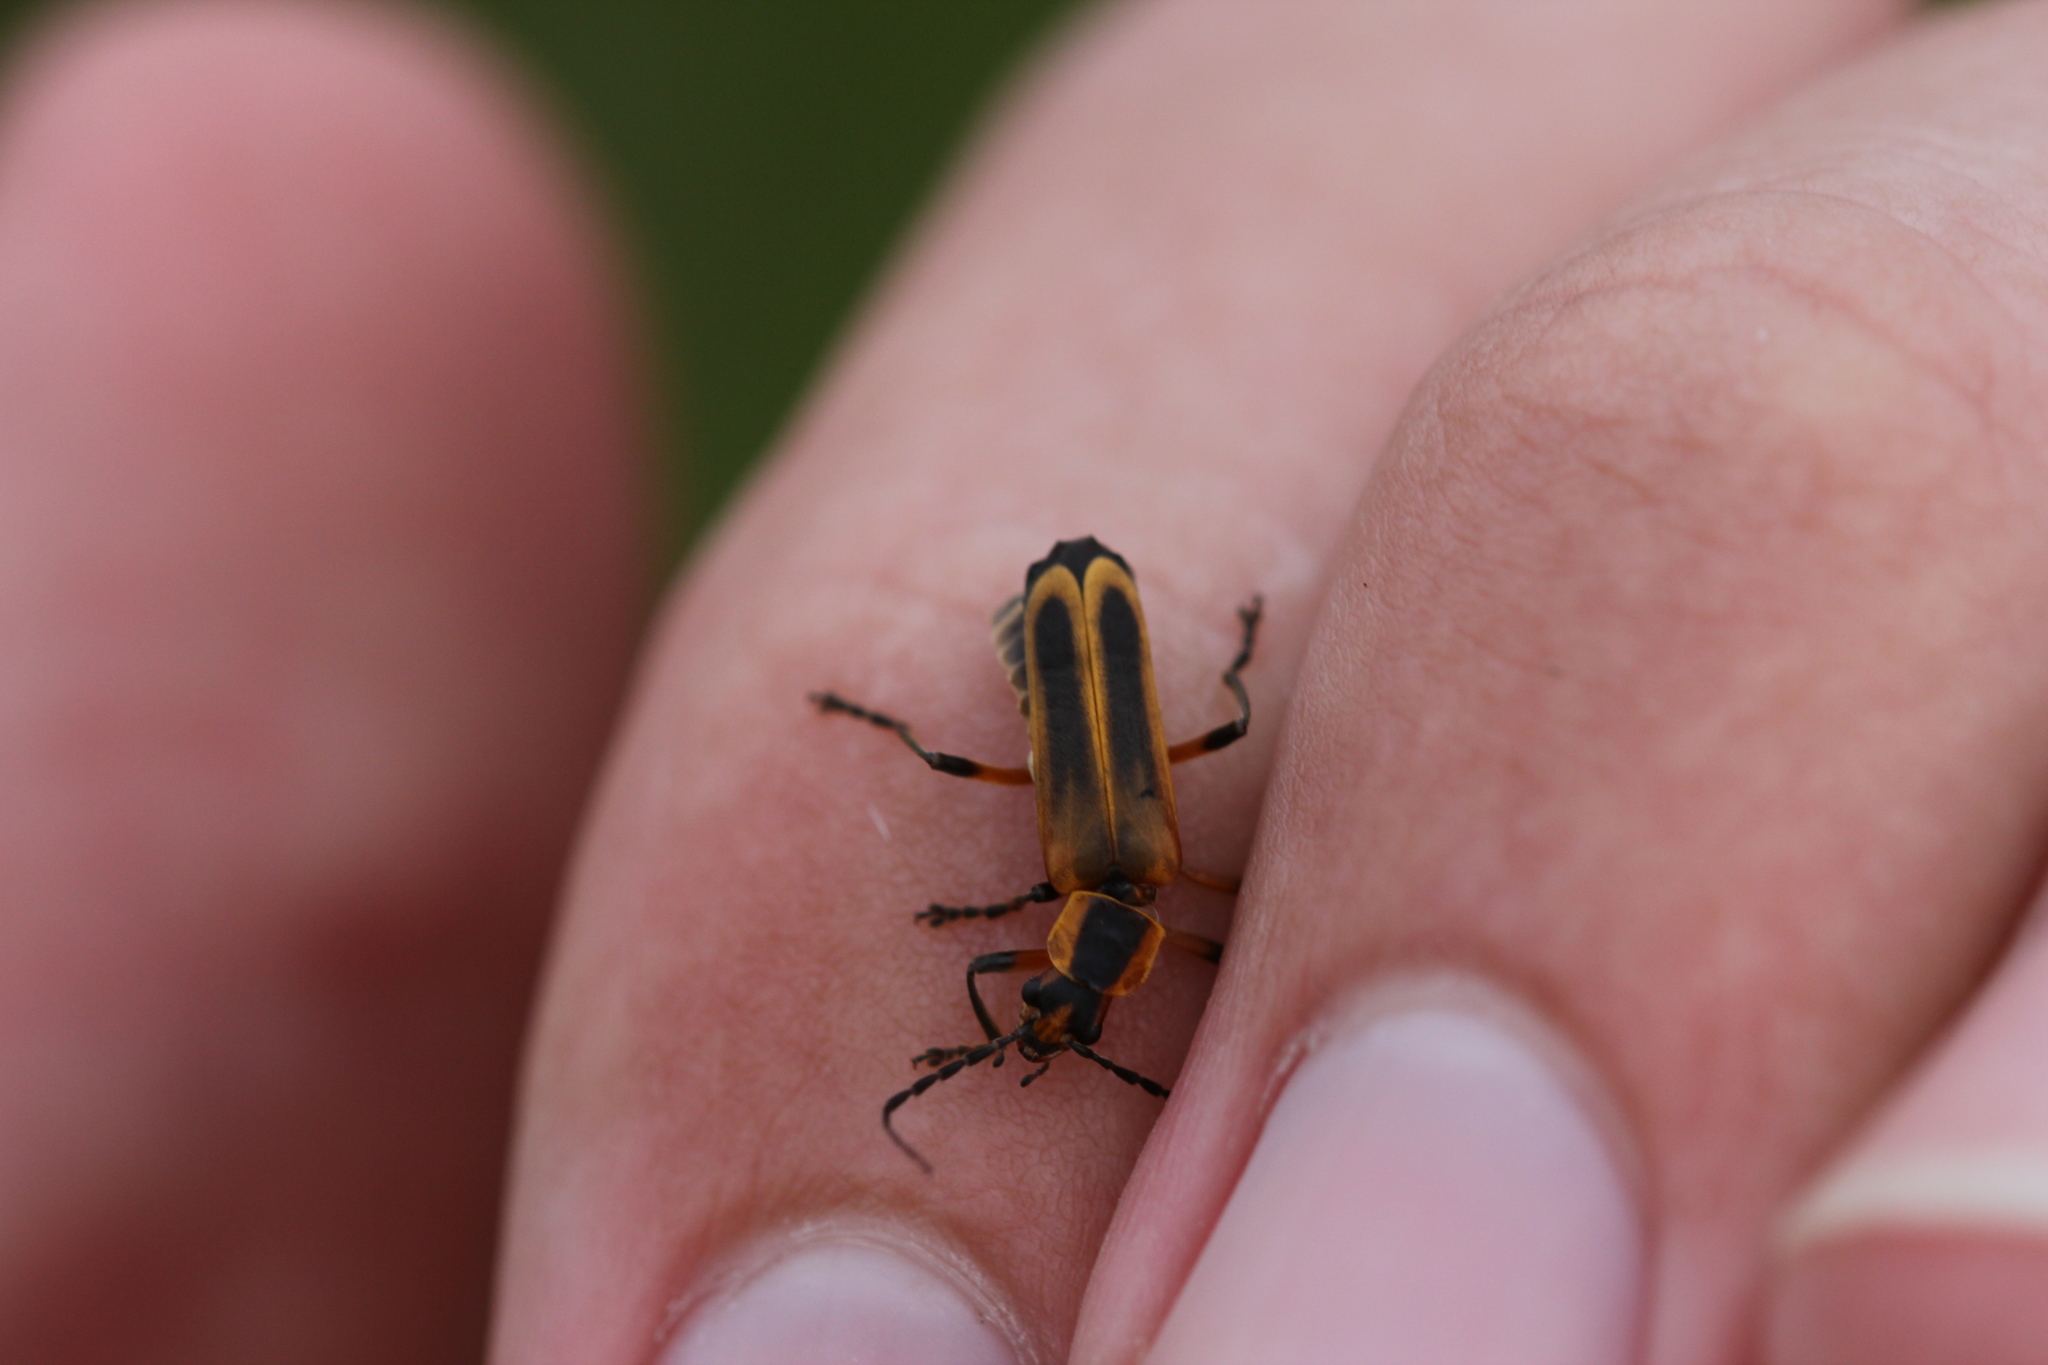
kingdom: Animalia
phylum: Arthropoda
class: Insecta
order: Coleoptera
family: Cantharidae
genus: Chauliognathus
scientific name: Chauliognathus marginatus
